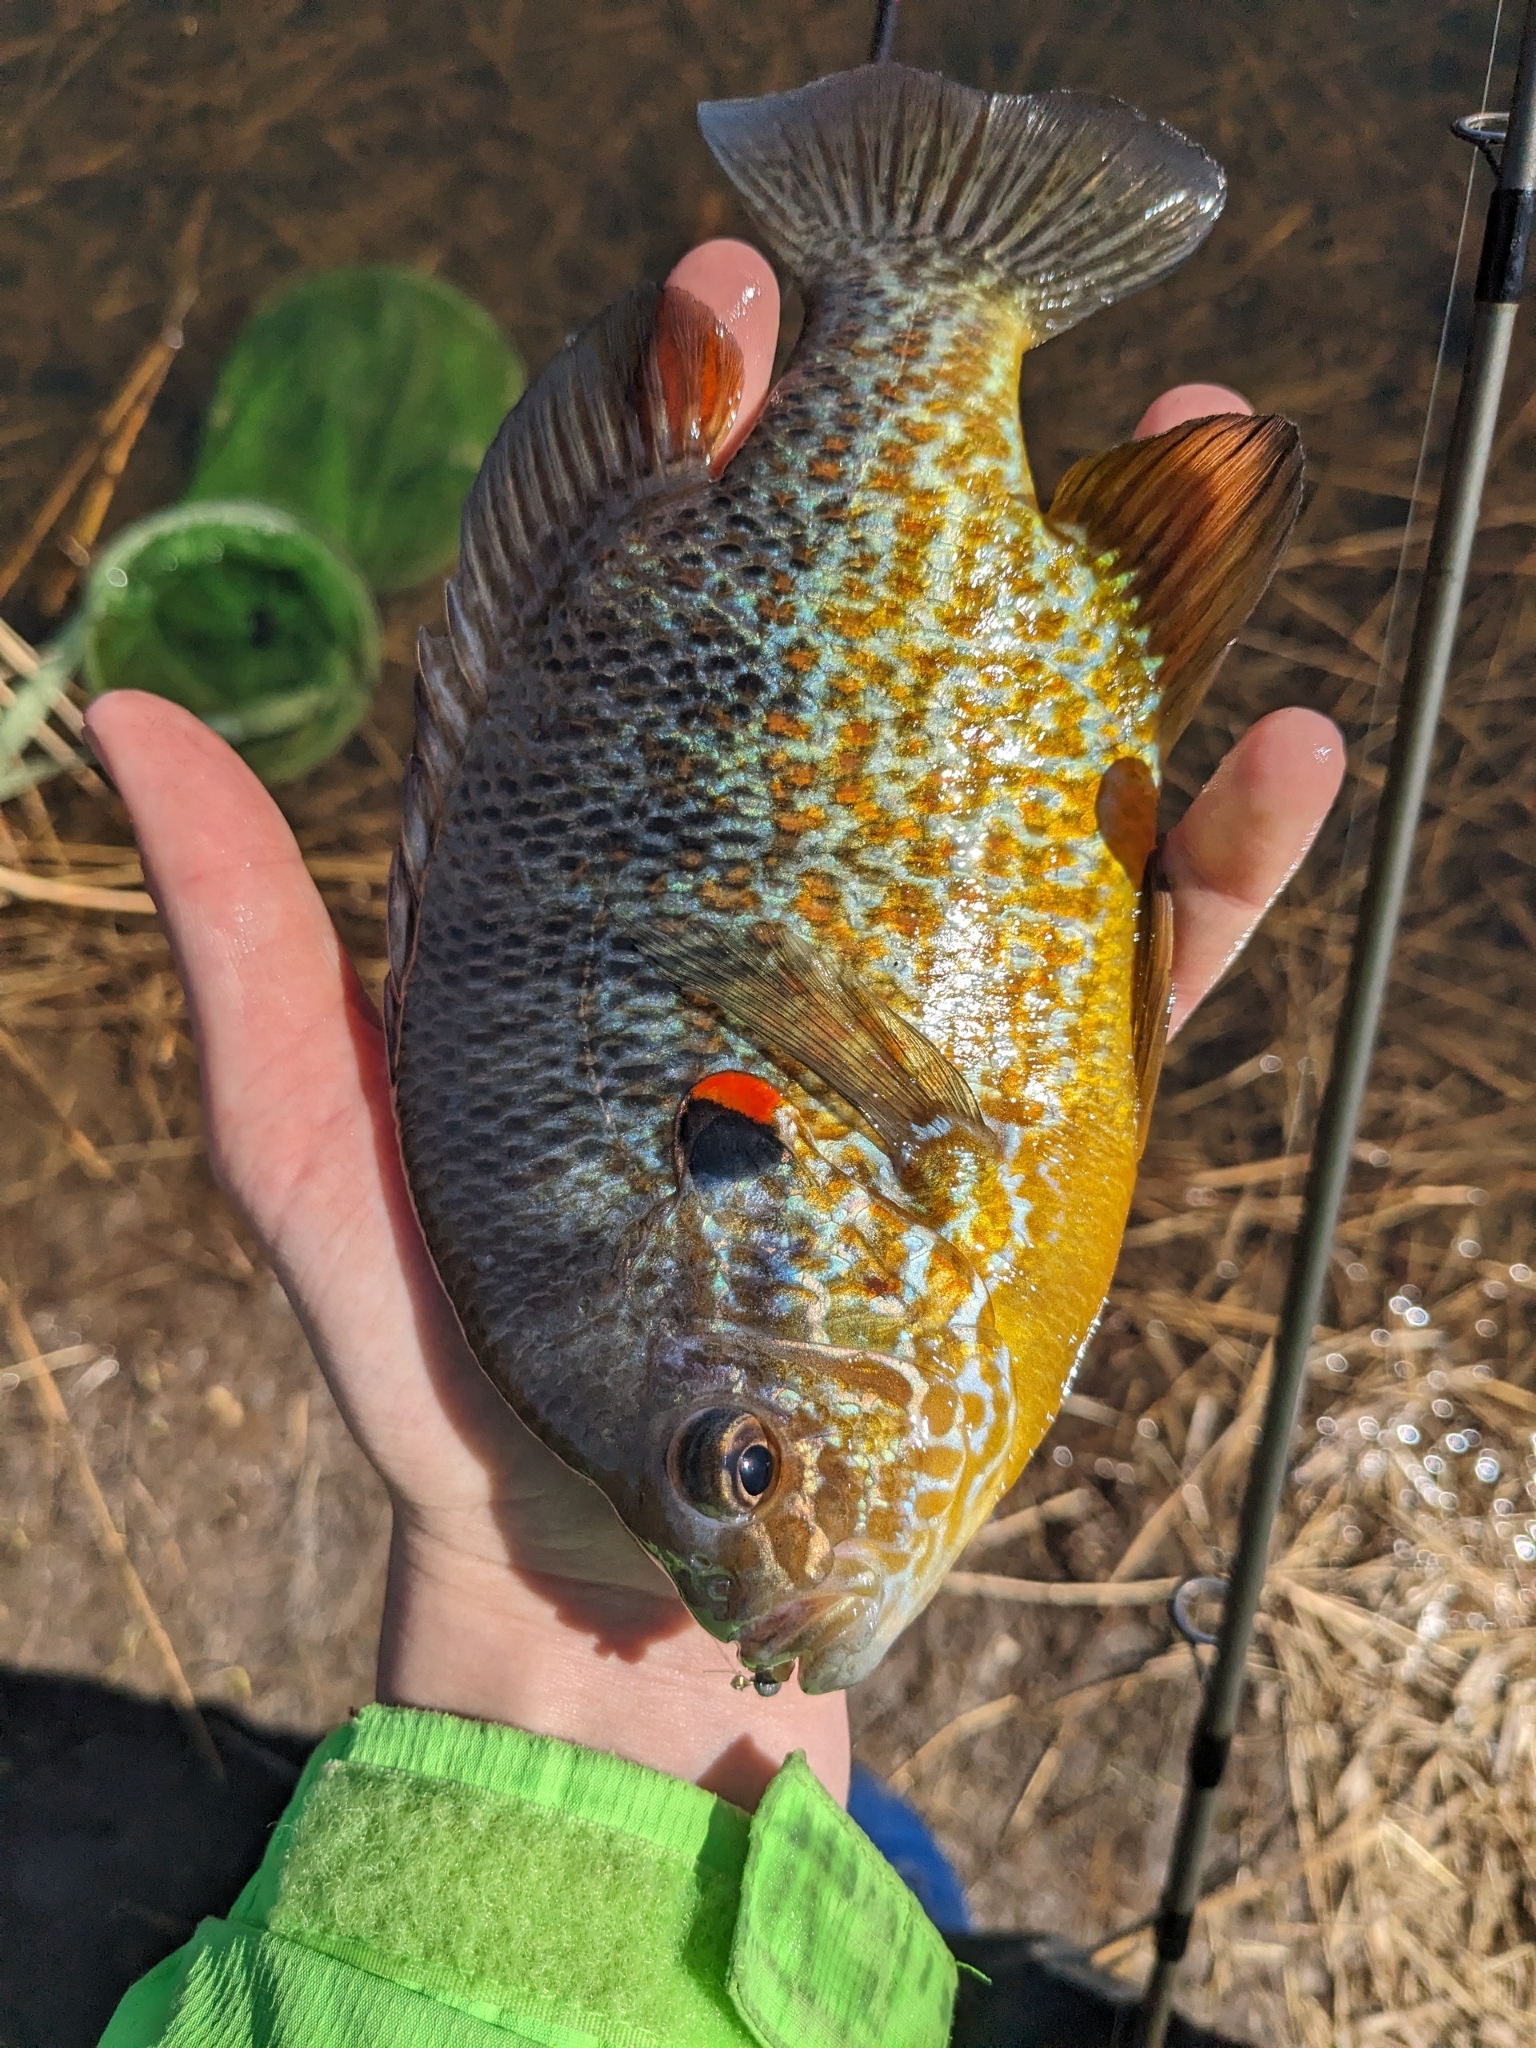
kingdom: Animalia
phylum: Chordata
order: Perciformes
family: Centrarchidae
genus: Lepomis
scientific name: Lepomis gibbosus
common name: Pumpkinseed
